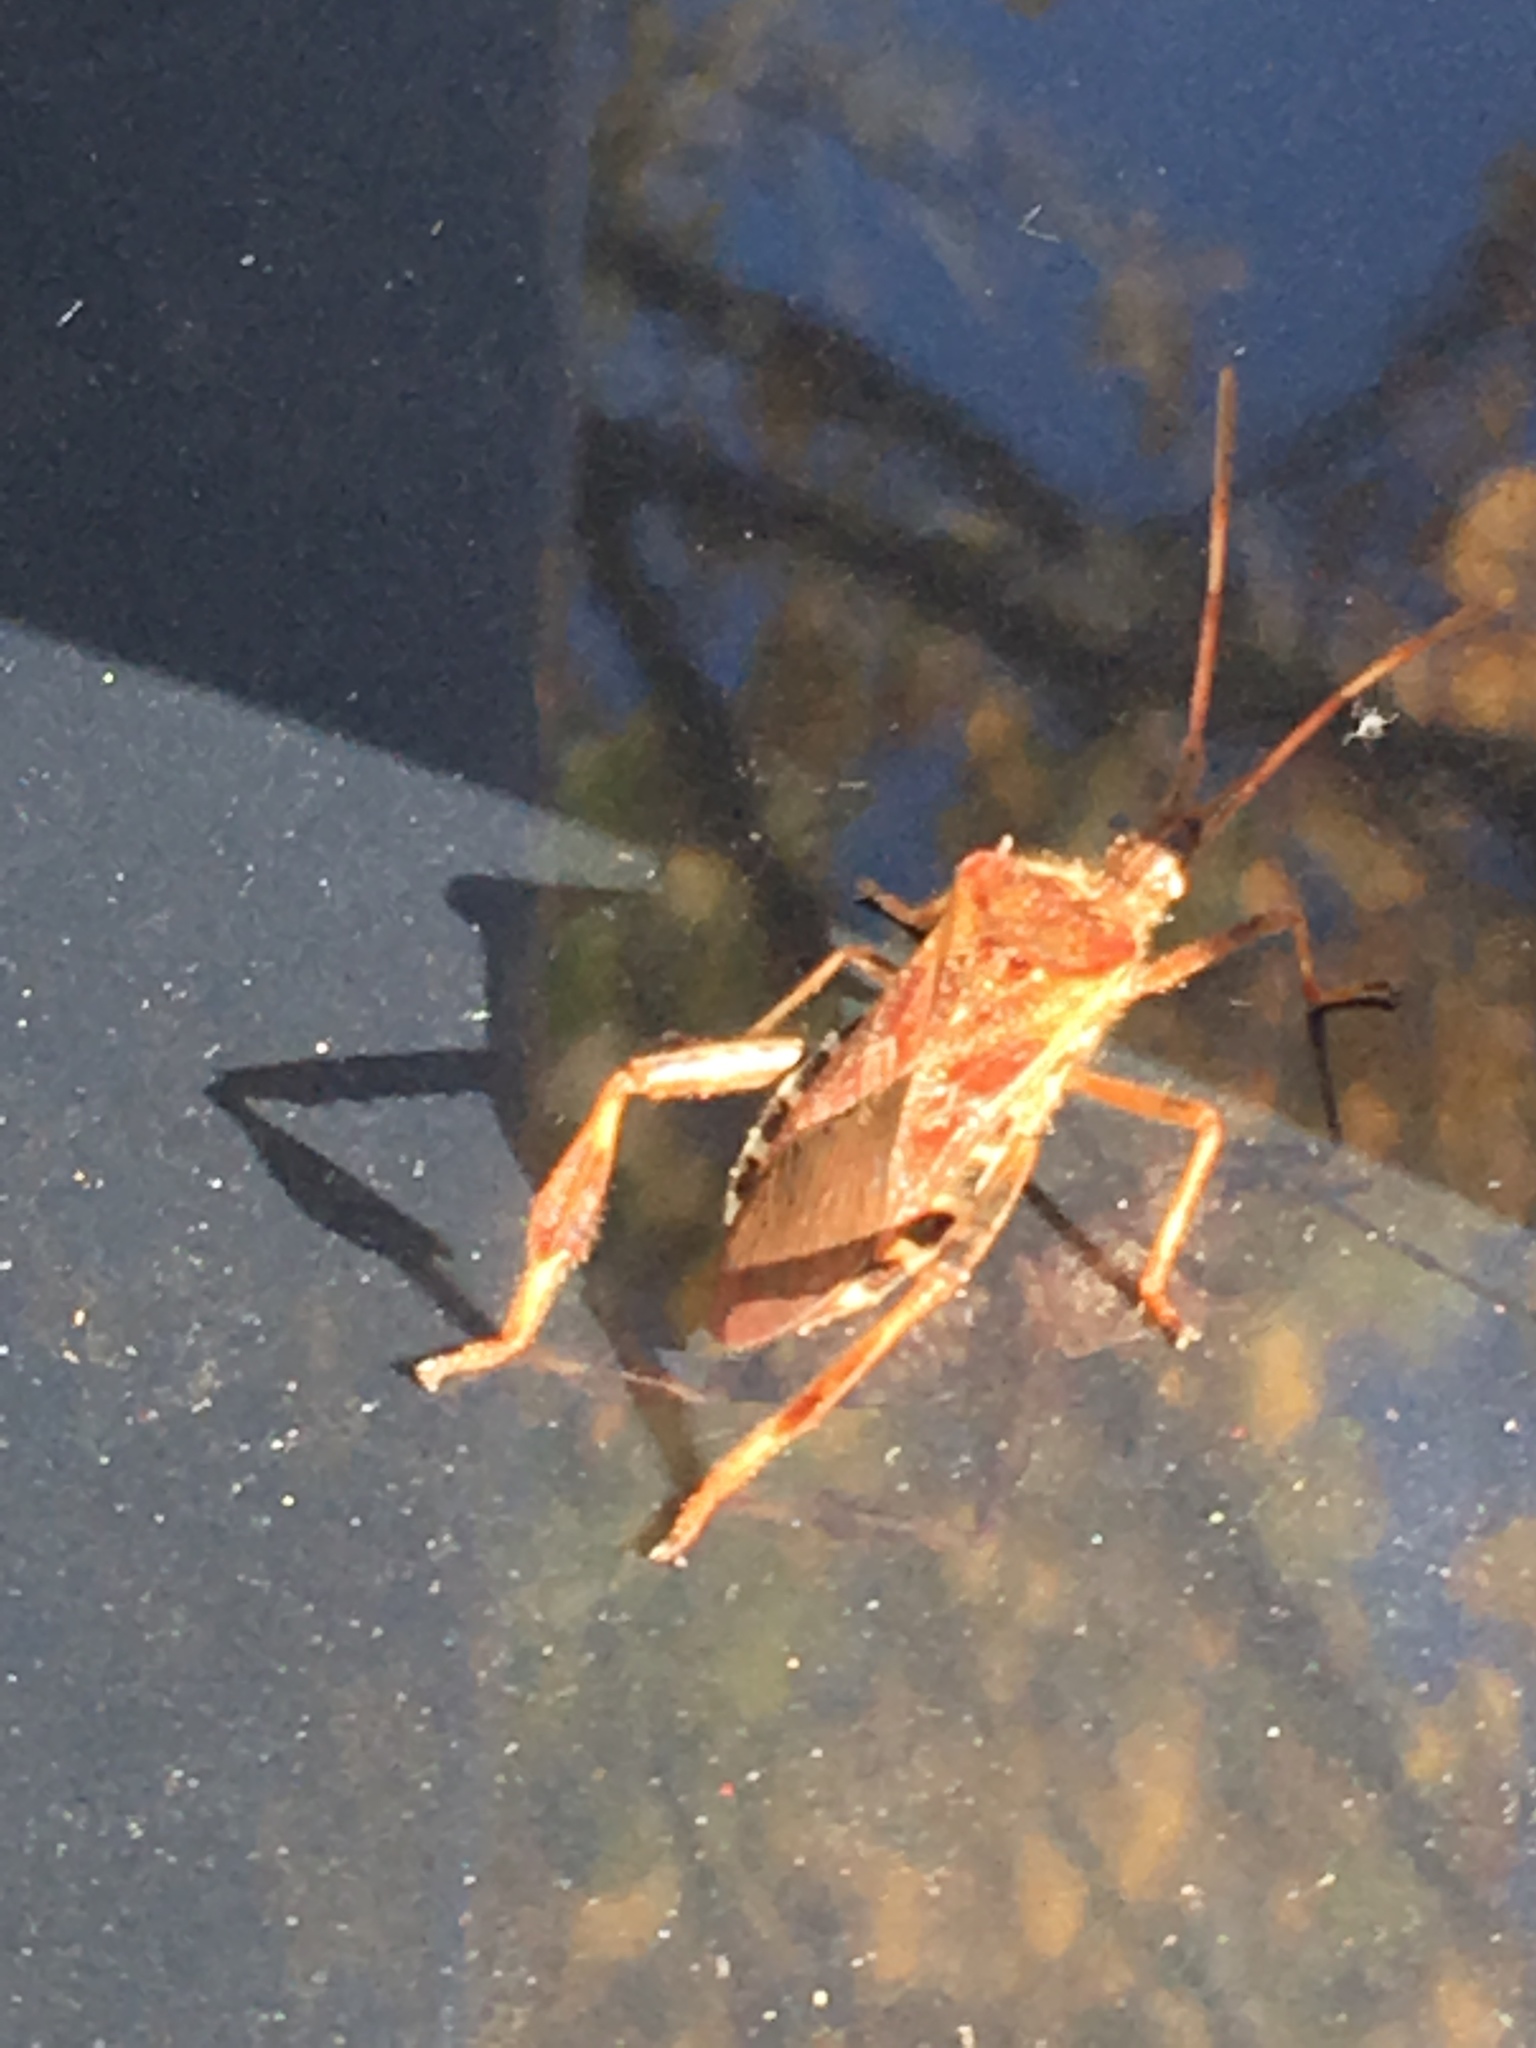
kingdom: Animalia
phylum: Arthropoda
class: Insecta
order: Hemiptera
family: Coreidae
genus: Leptoglossus
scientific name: Leptoglossus occidentalis
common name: Western conifer-seed bug
